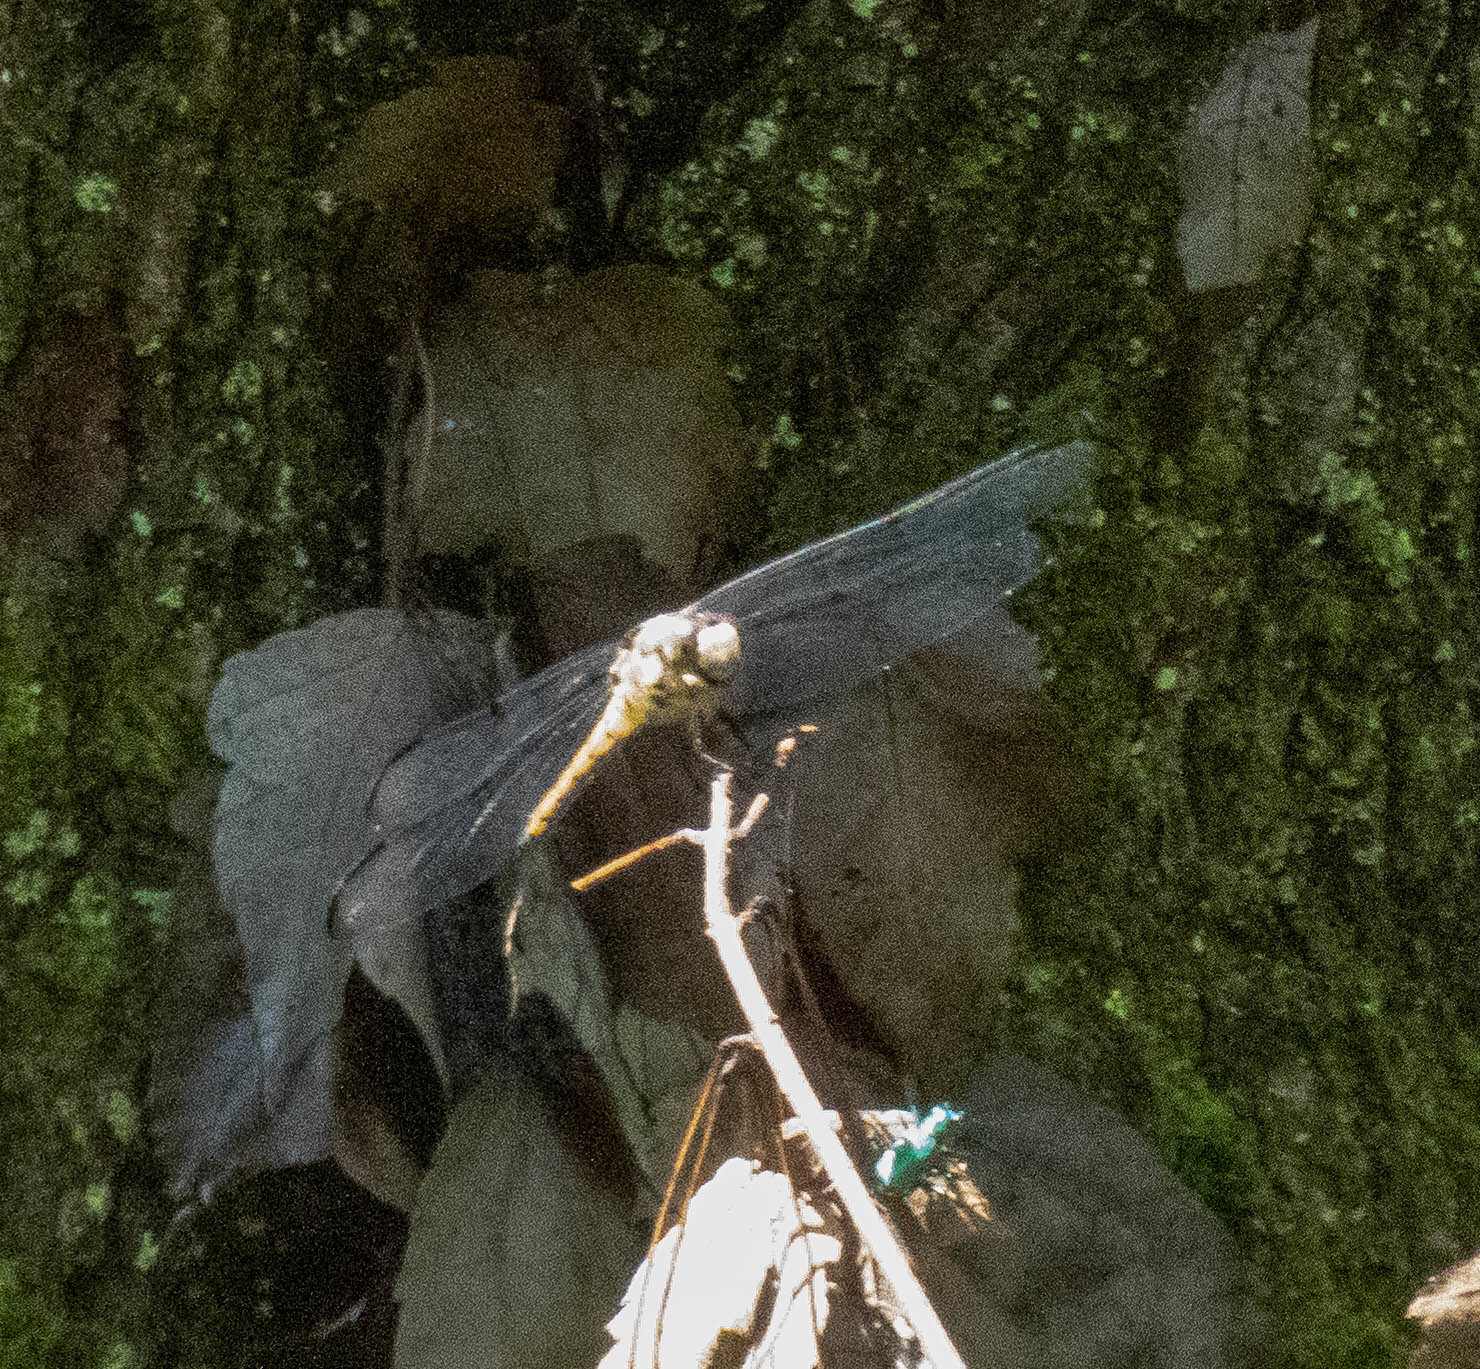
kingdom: Animalia
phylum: Arthropoda
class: Insecta
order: Odonata
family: Libellulidae
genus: Libellula
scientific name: Libellula vibrans
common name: Great blue skimmer
